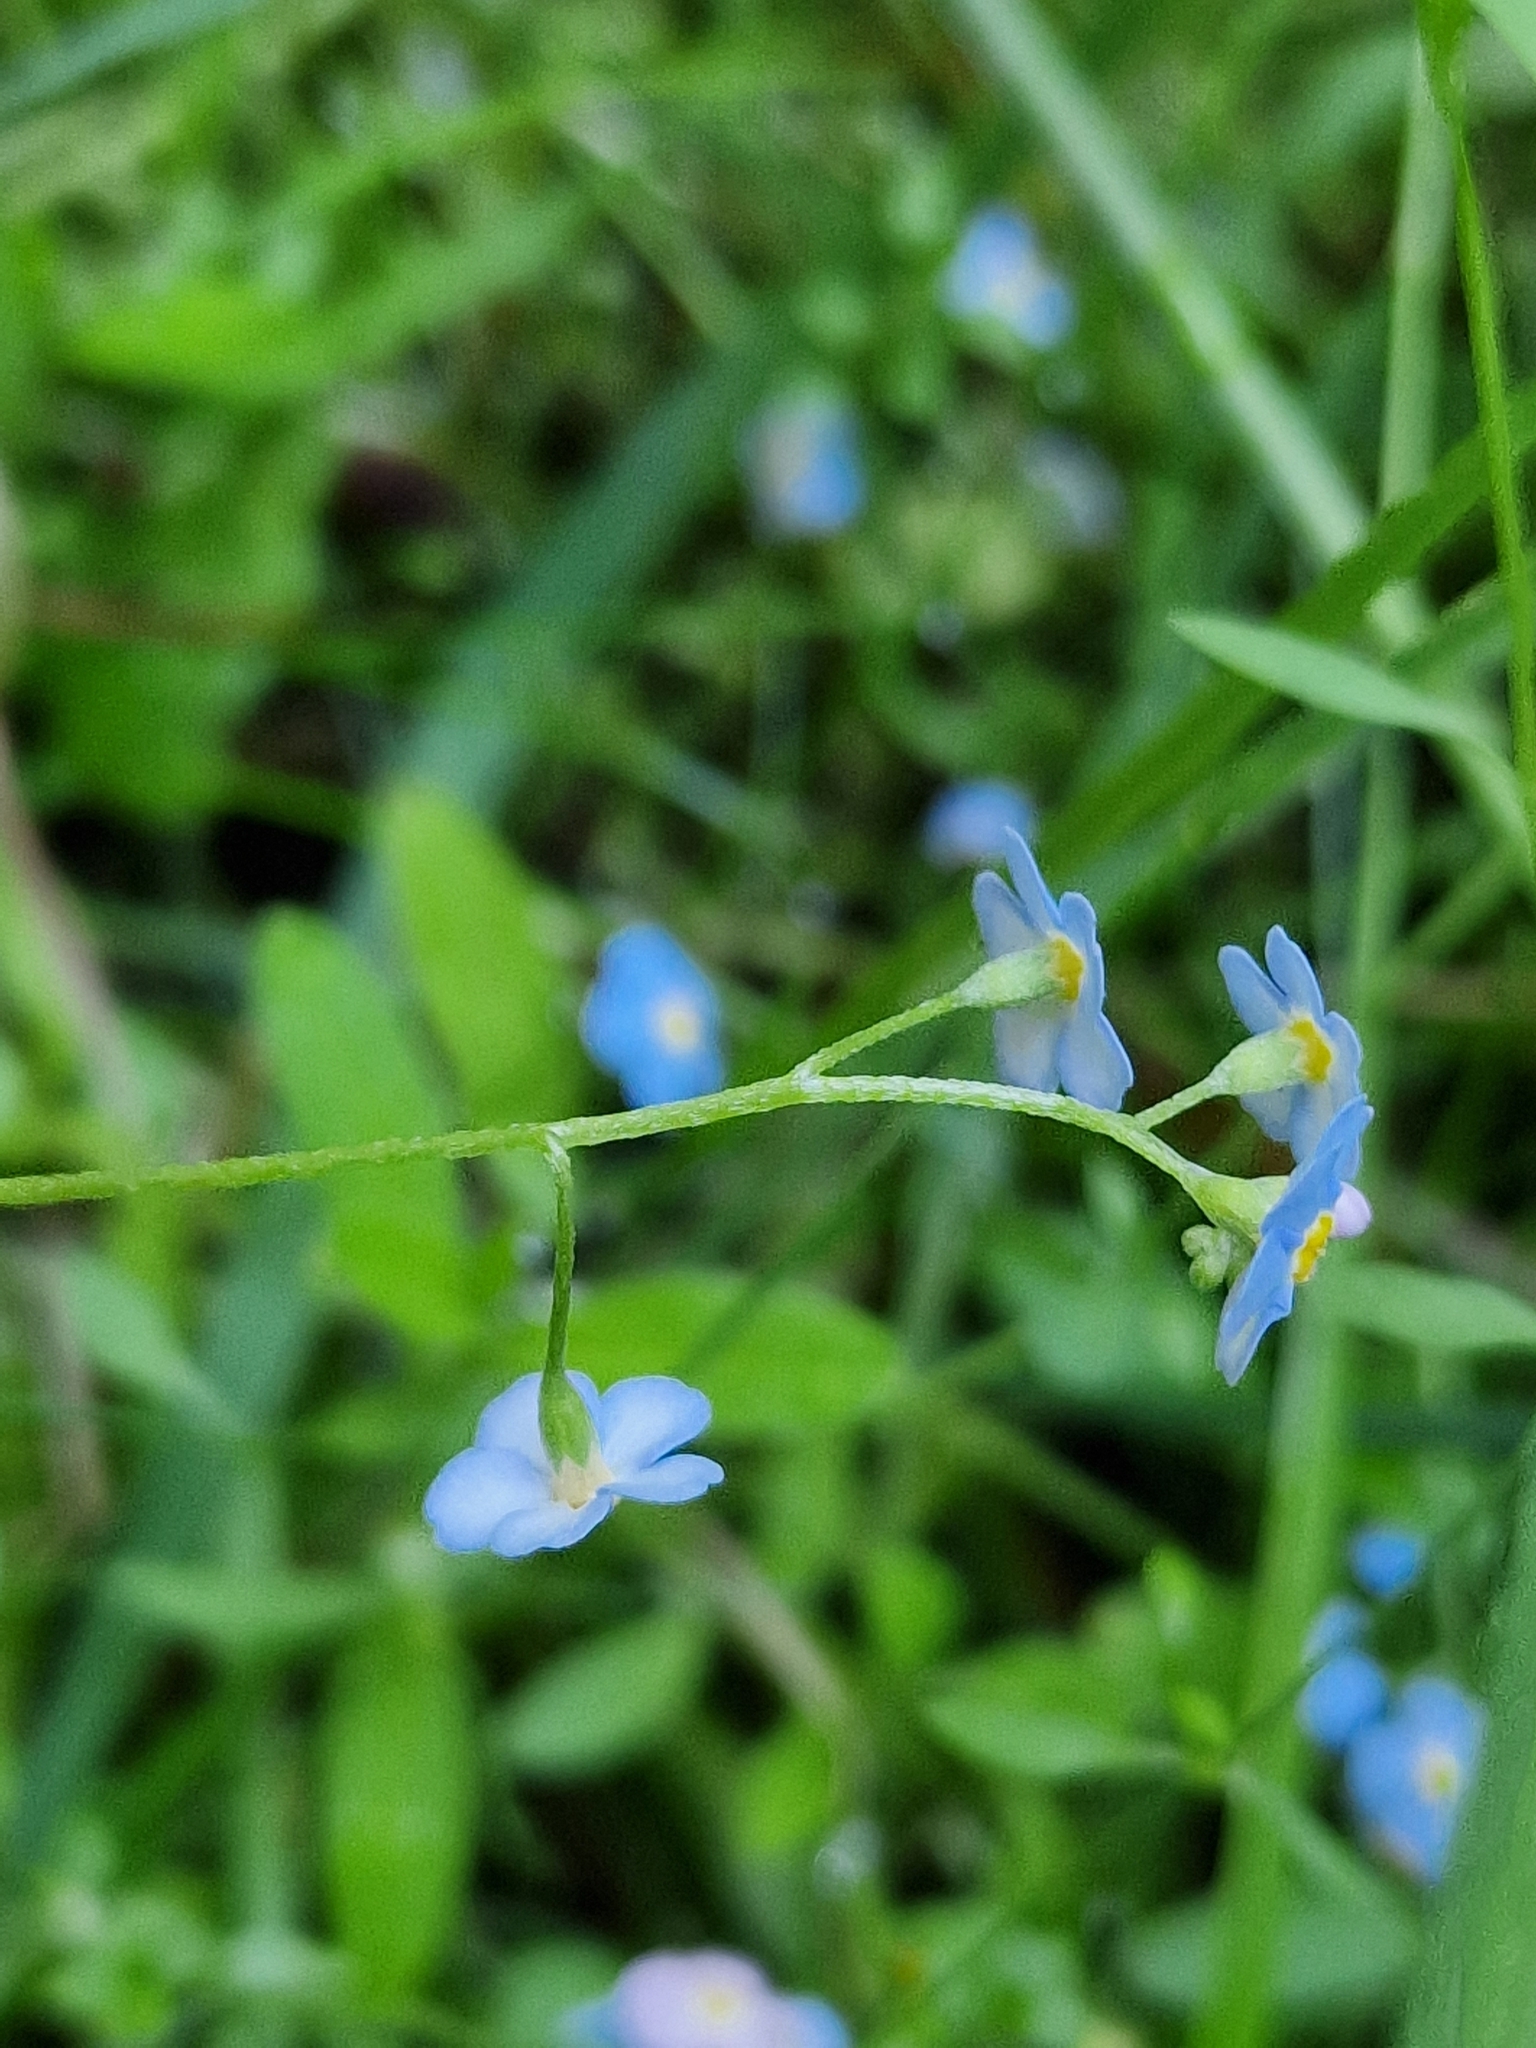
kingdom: Plantae
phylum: Tracheophyta
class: Magnoliopsida
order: Boraginales
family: Boraginaceae
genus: Myosotis
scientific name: Myosotis scorpioides
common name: Water forget-me-not
